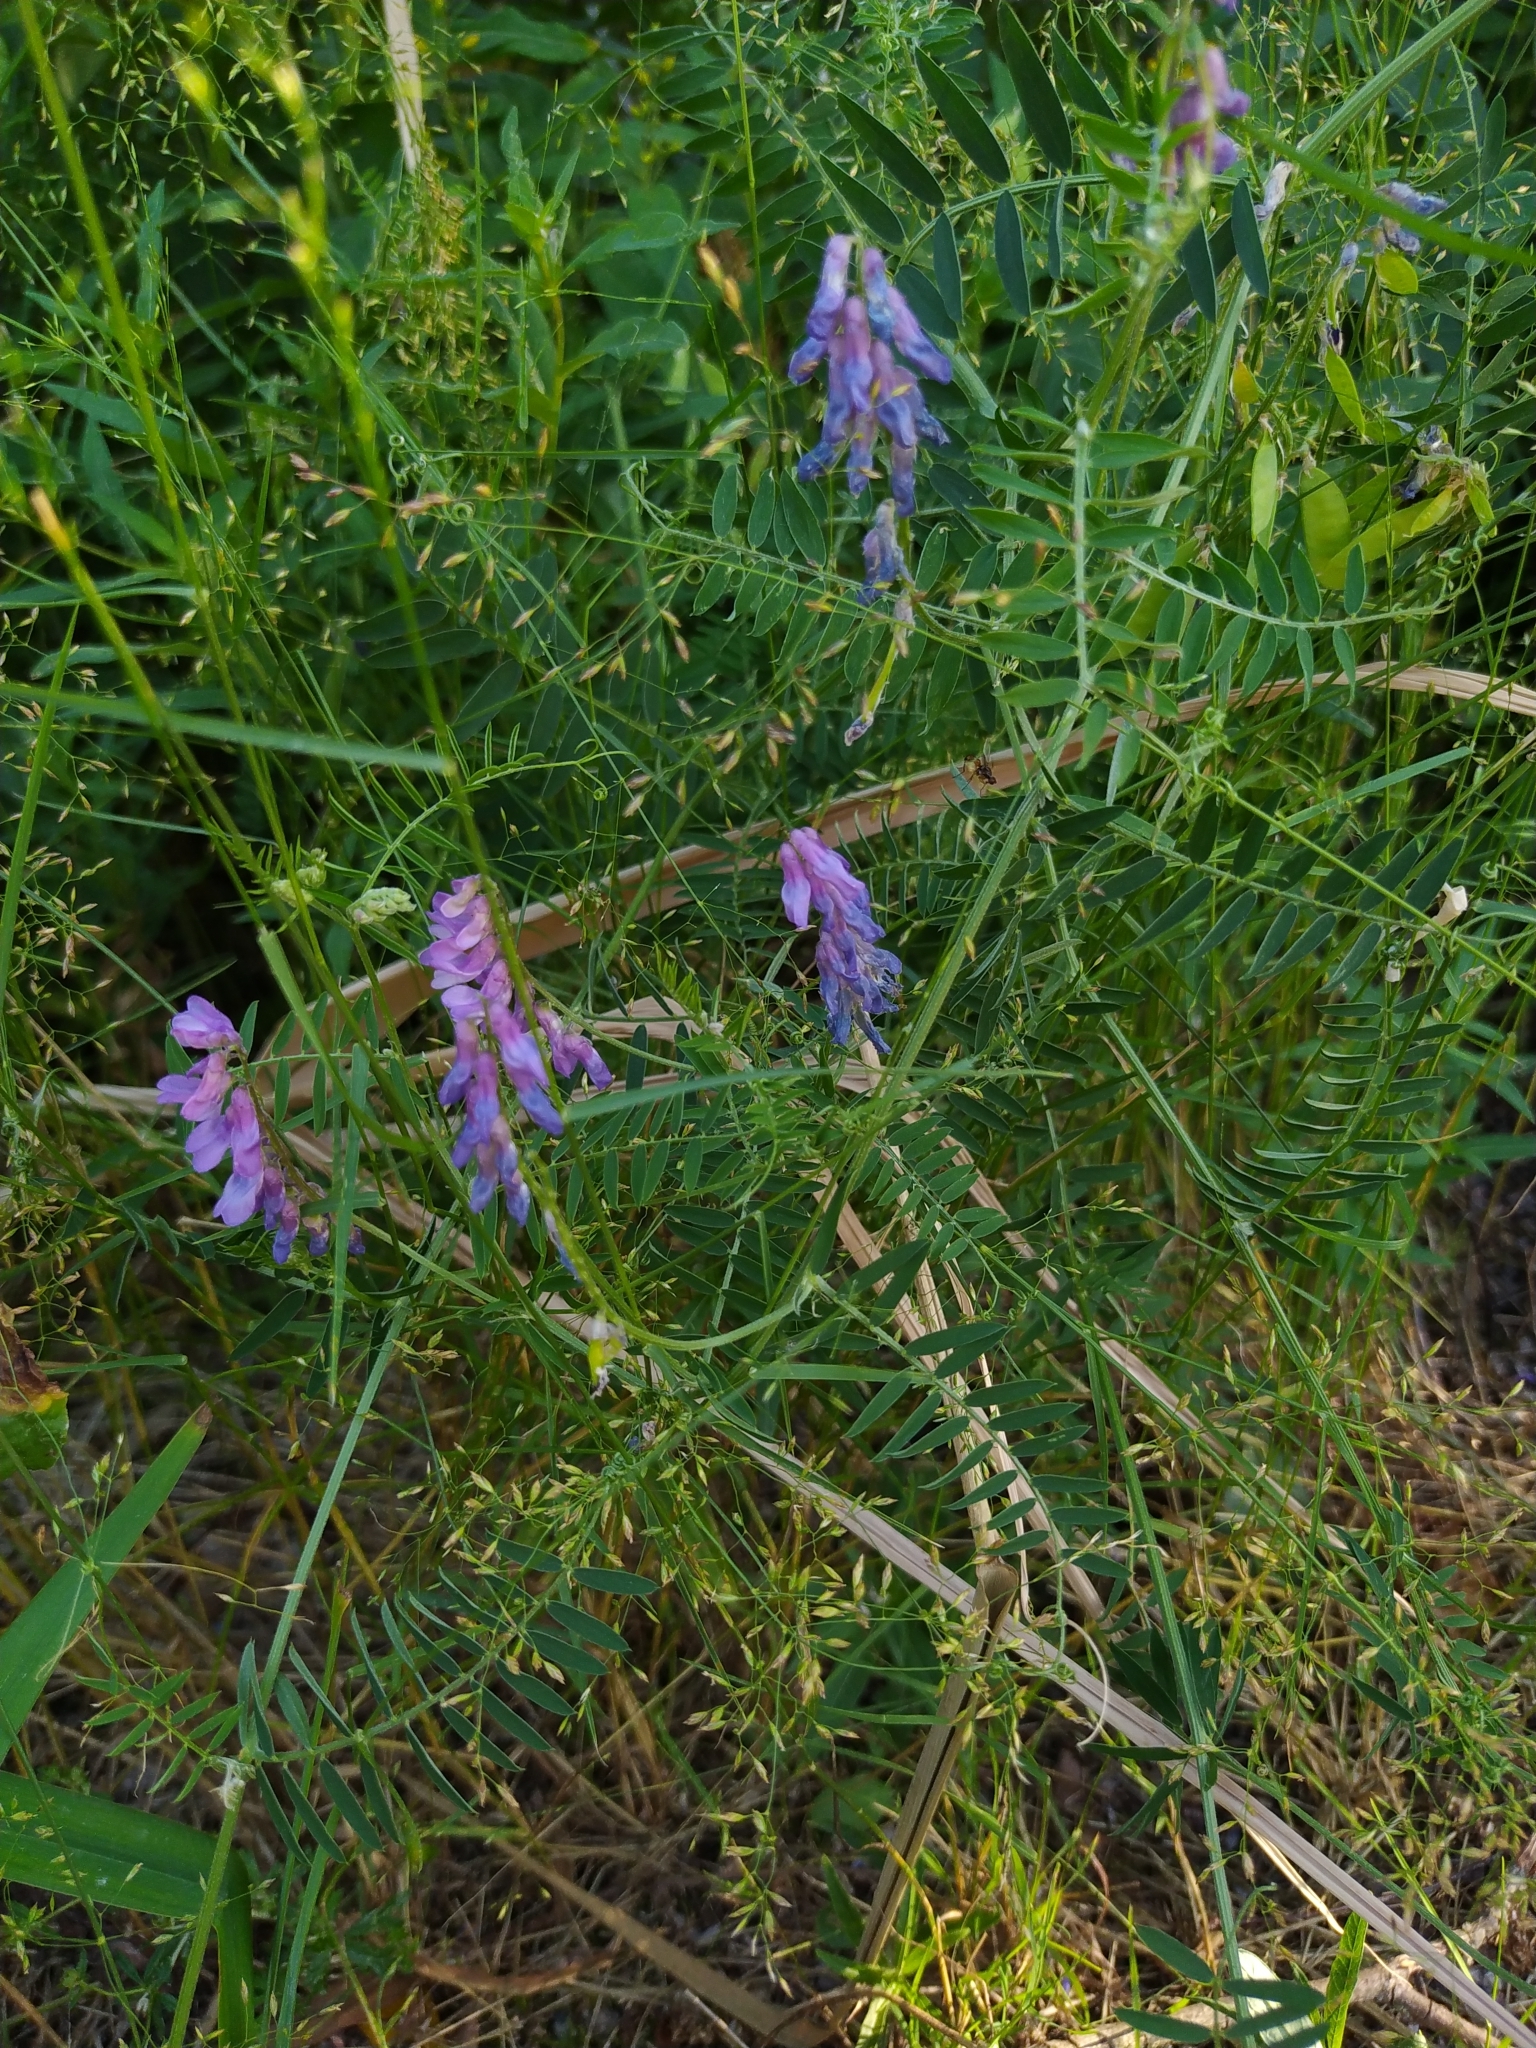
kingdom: Plantae
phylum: Tracheophyta
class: Magnoliopsida
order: Fabales
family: Fabaceae
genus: Vicia
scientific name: Vicia cracca
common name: Bird vetch
